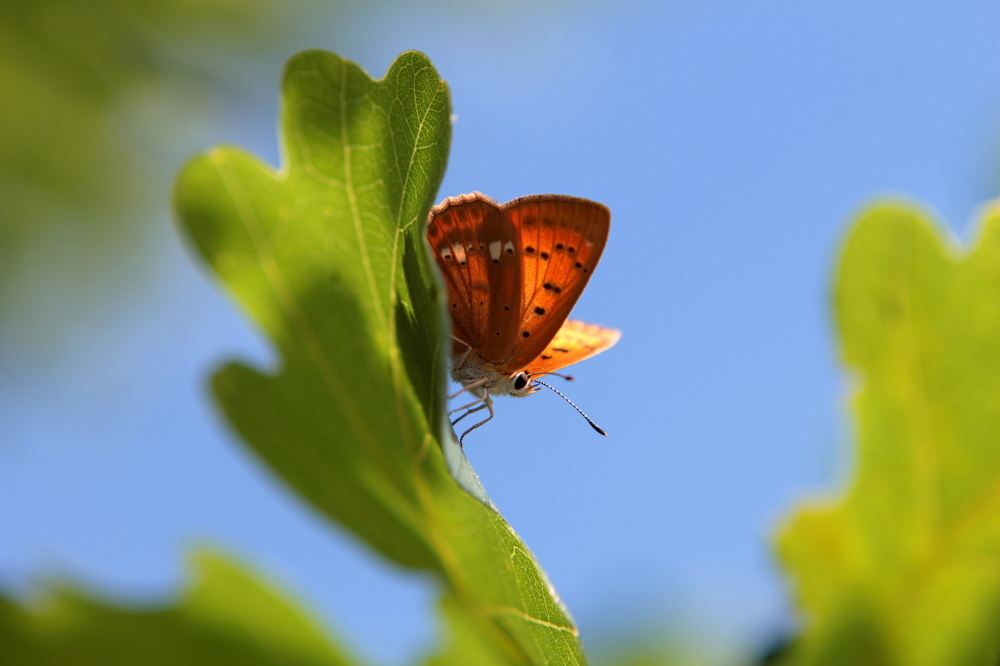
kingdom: Animalia
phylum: Arthropoda
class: Insecta
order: Lepidoptera
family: Lycaenidae
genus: Lycaena
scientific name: Lycaena virgaureae
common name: Scarce copper
